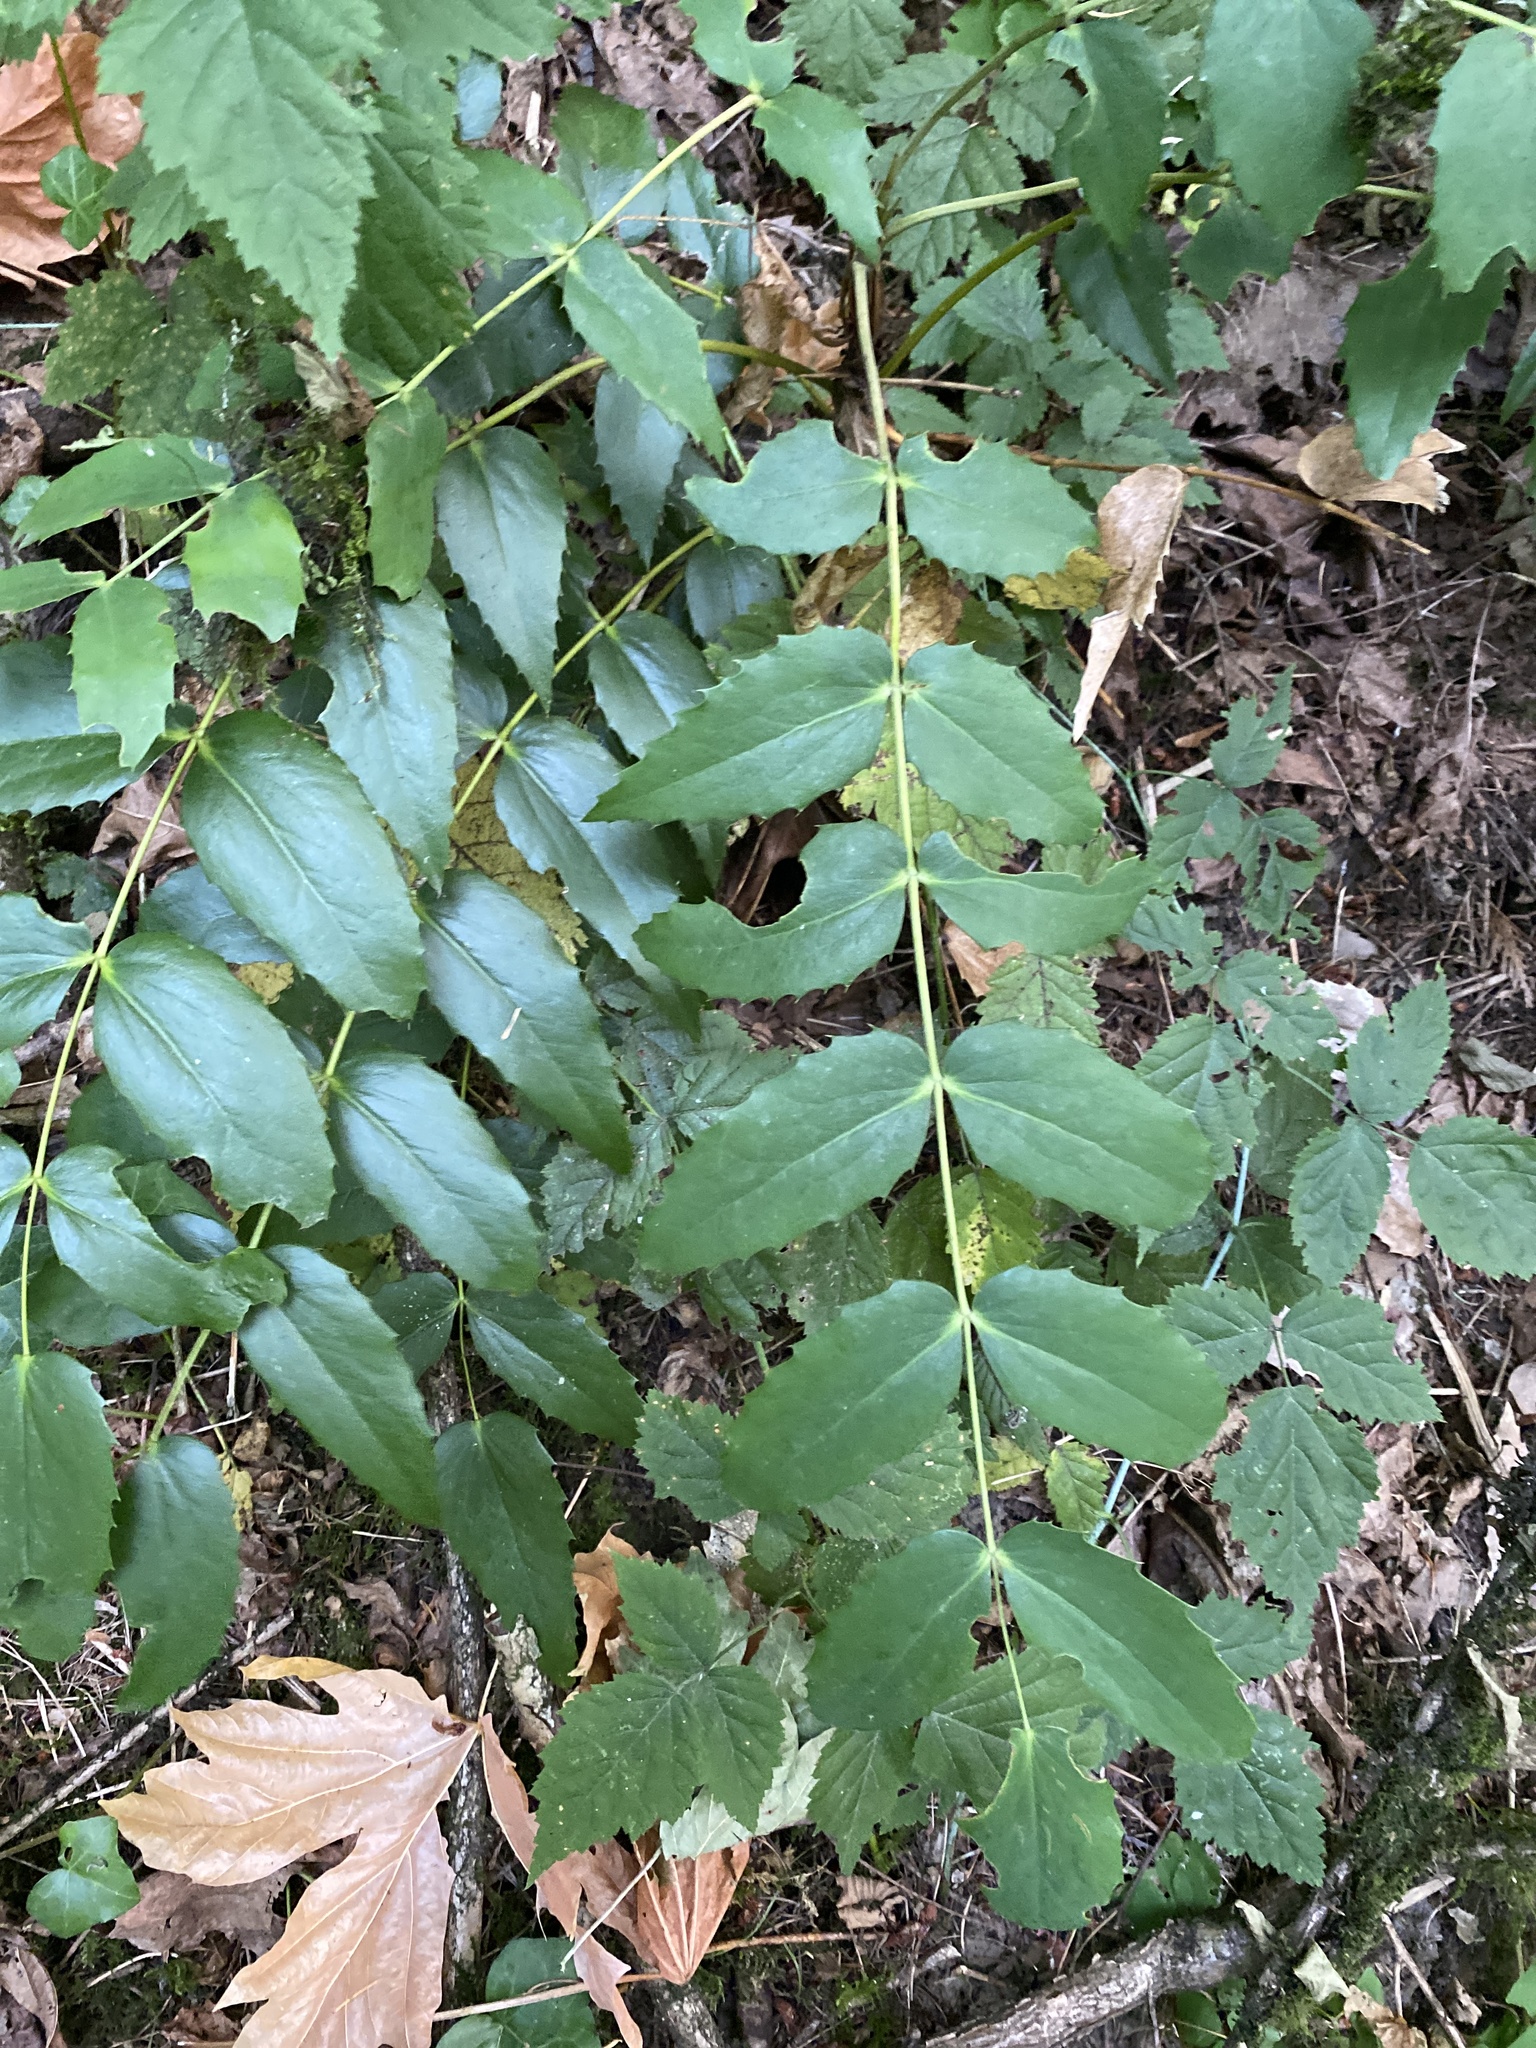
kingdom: Plantae
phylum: Tracheophyta
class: Magnoliopsida
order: Ranunculales
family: Berberidaceae
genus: Mahonia
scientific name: Mahonia nervosa
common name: Cascade oregon-grape
